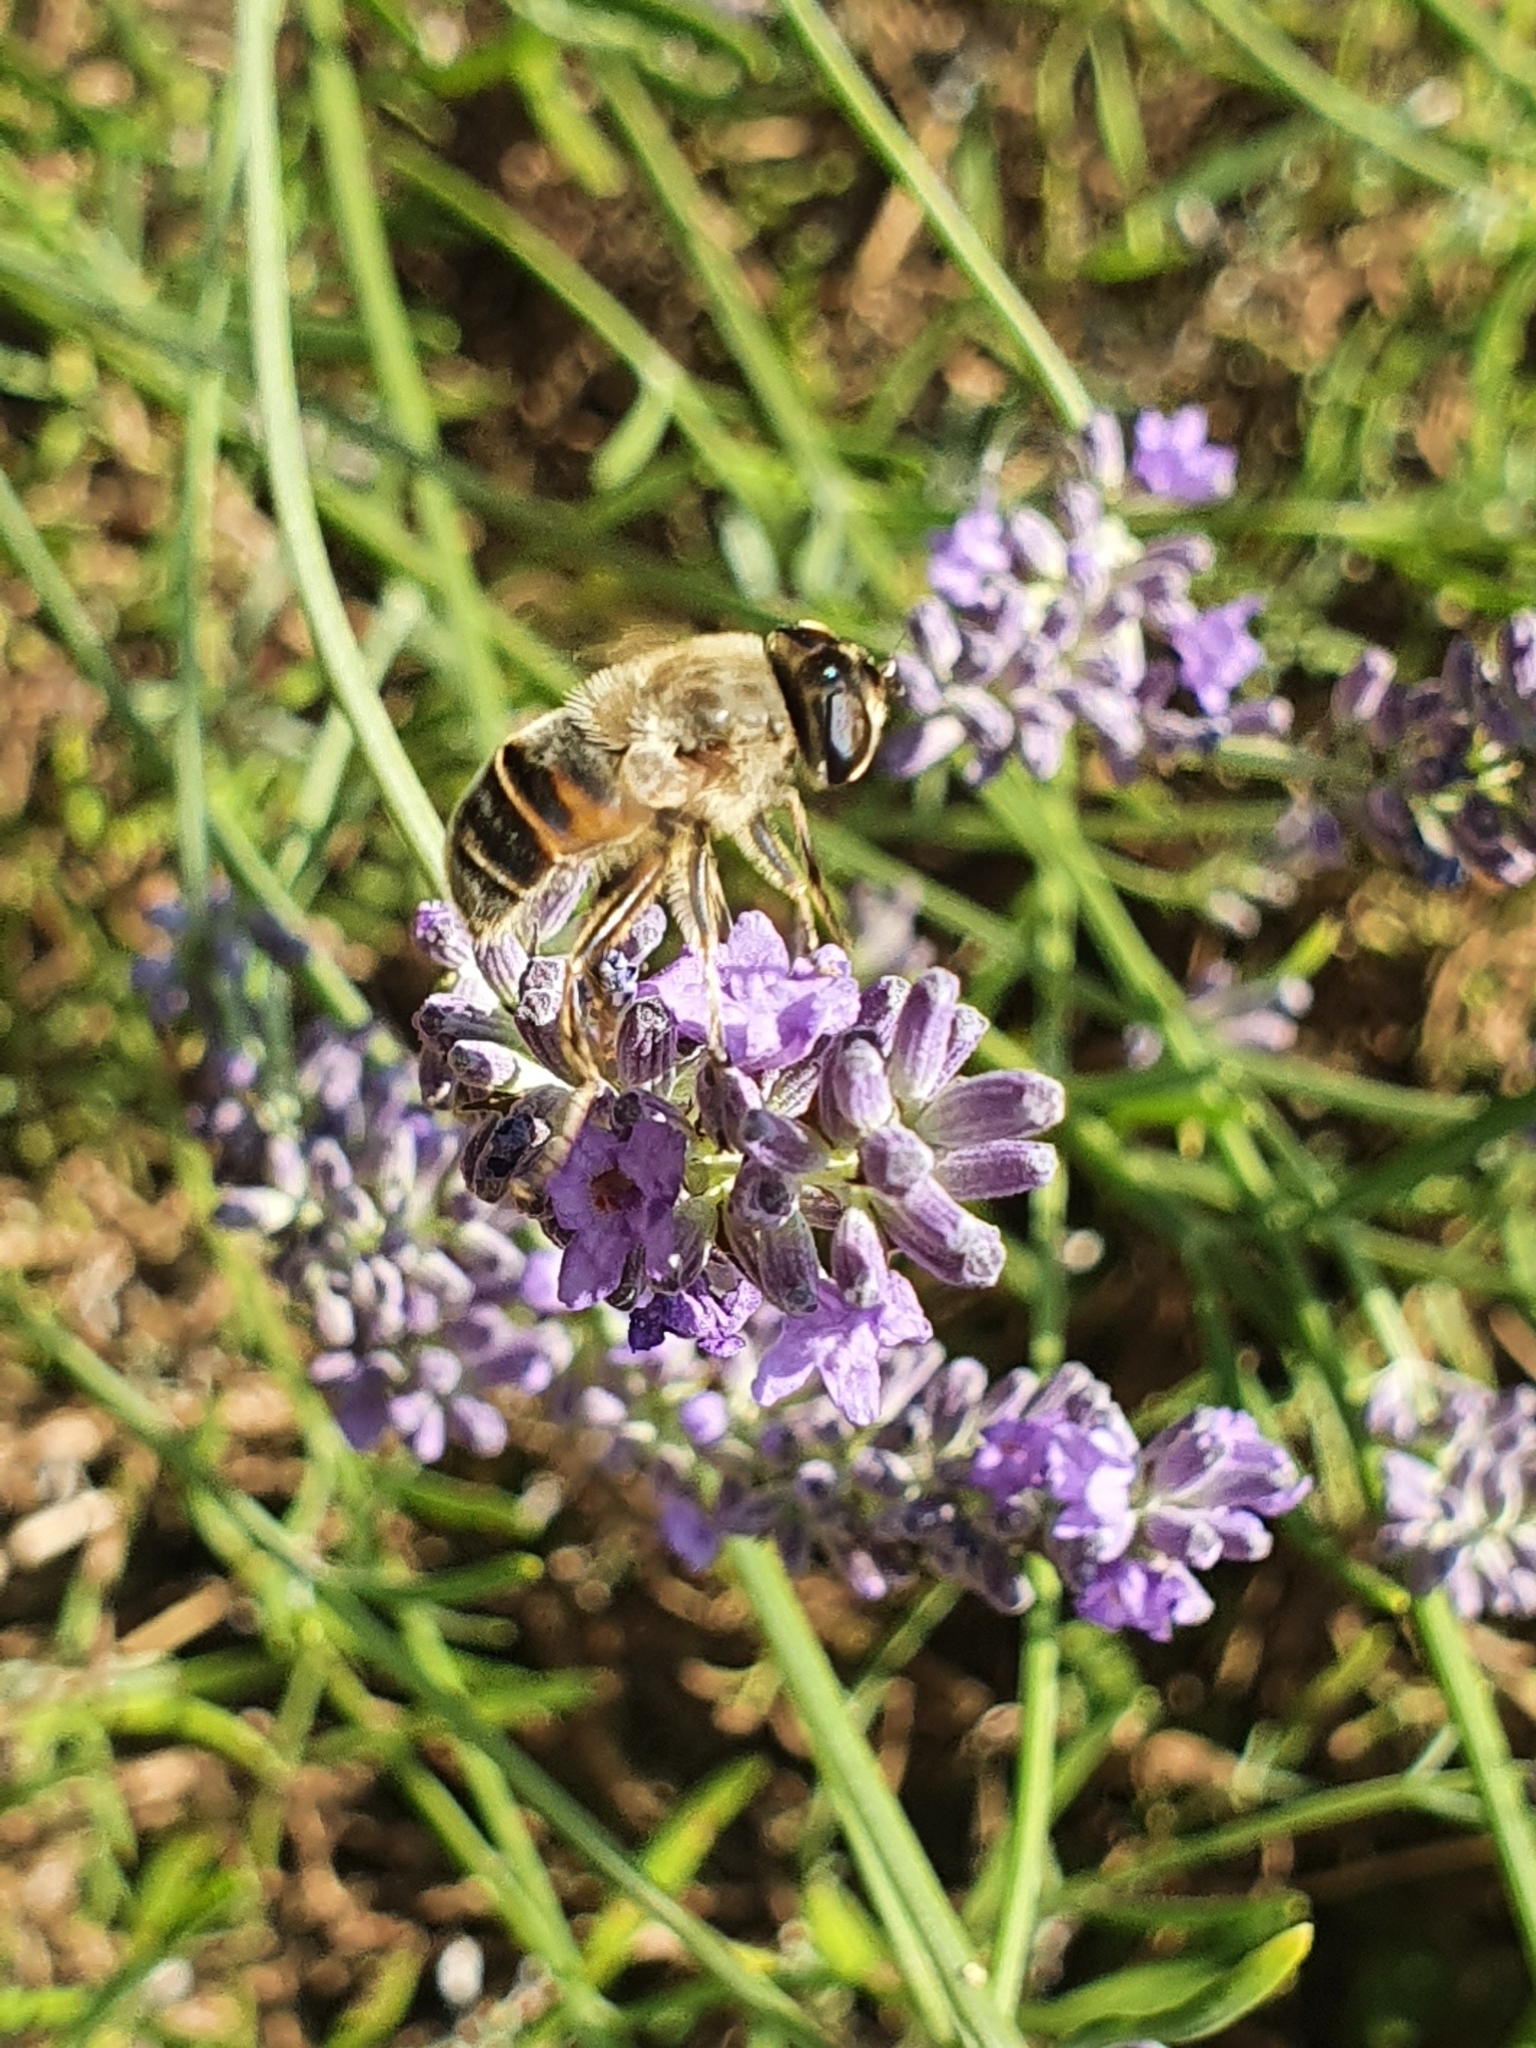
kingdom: Animalia
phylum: Arthropoda
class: Insecta
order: Diptera
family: Syrphidae
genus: Eristalis
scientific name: Eristalis tenax
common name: Drone fly
